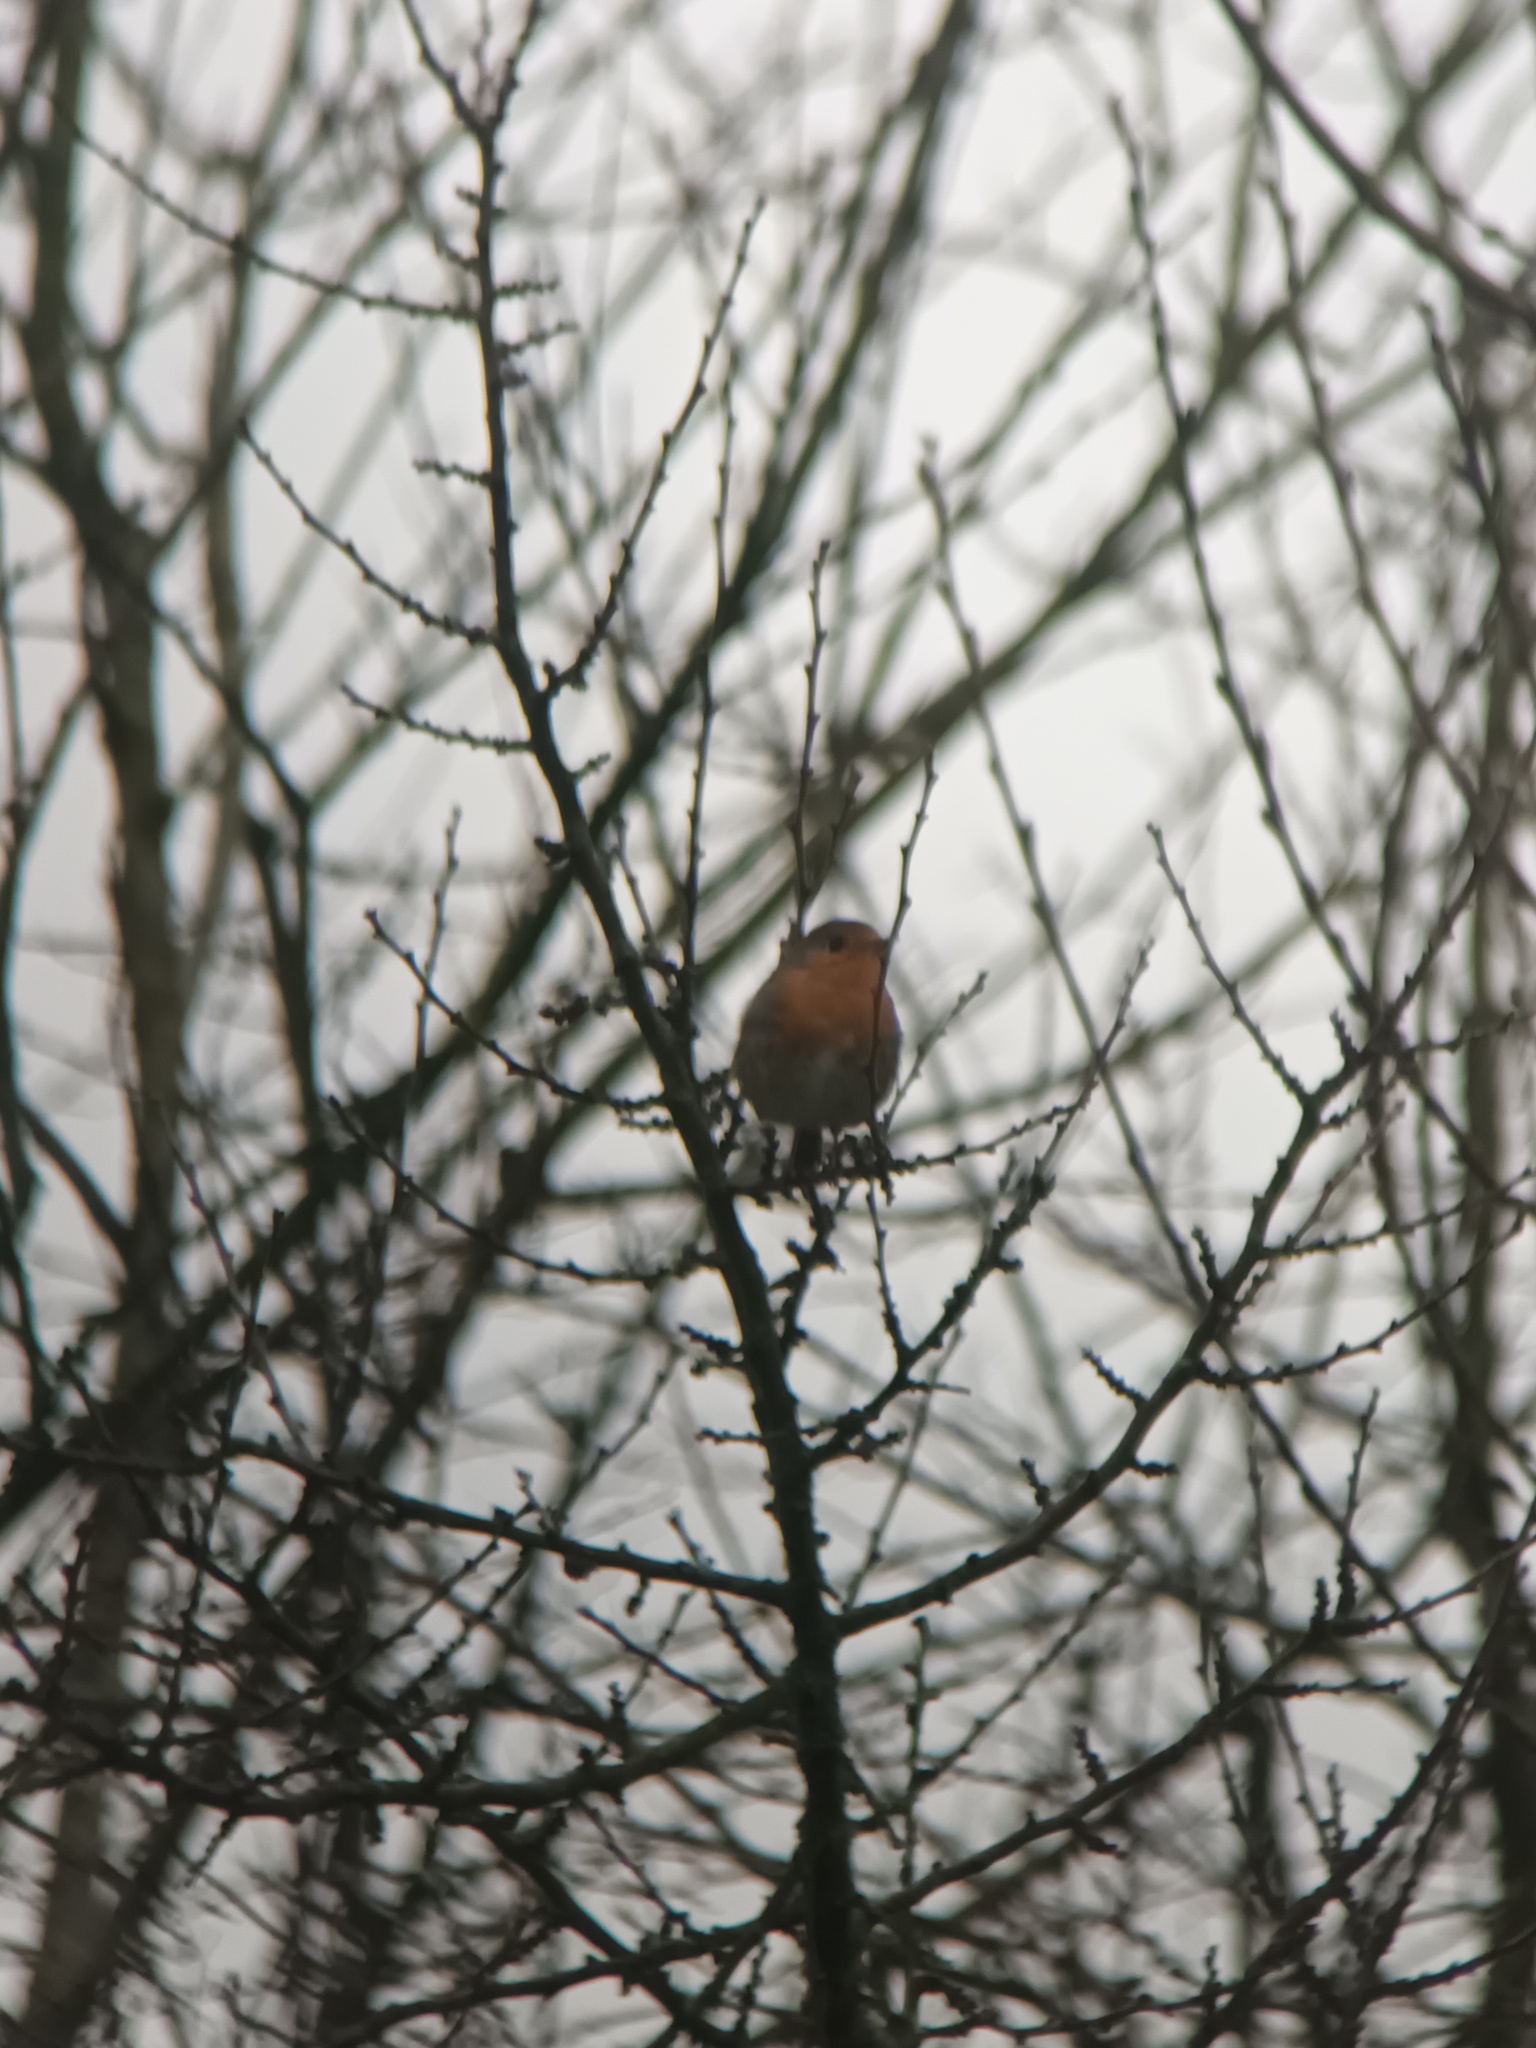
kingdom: Animalia
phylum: Chordata
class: Aves
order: Passeriformes
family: Muscicapidae
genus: Erithacus
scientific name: Erithacus rubecula
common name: European robin
